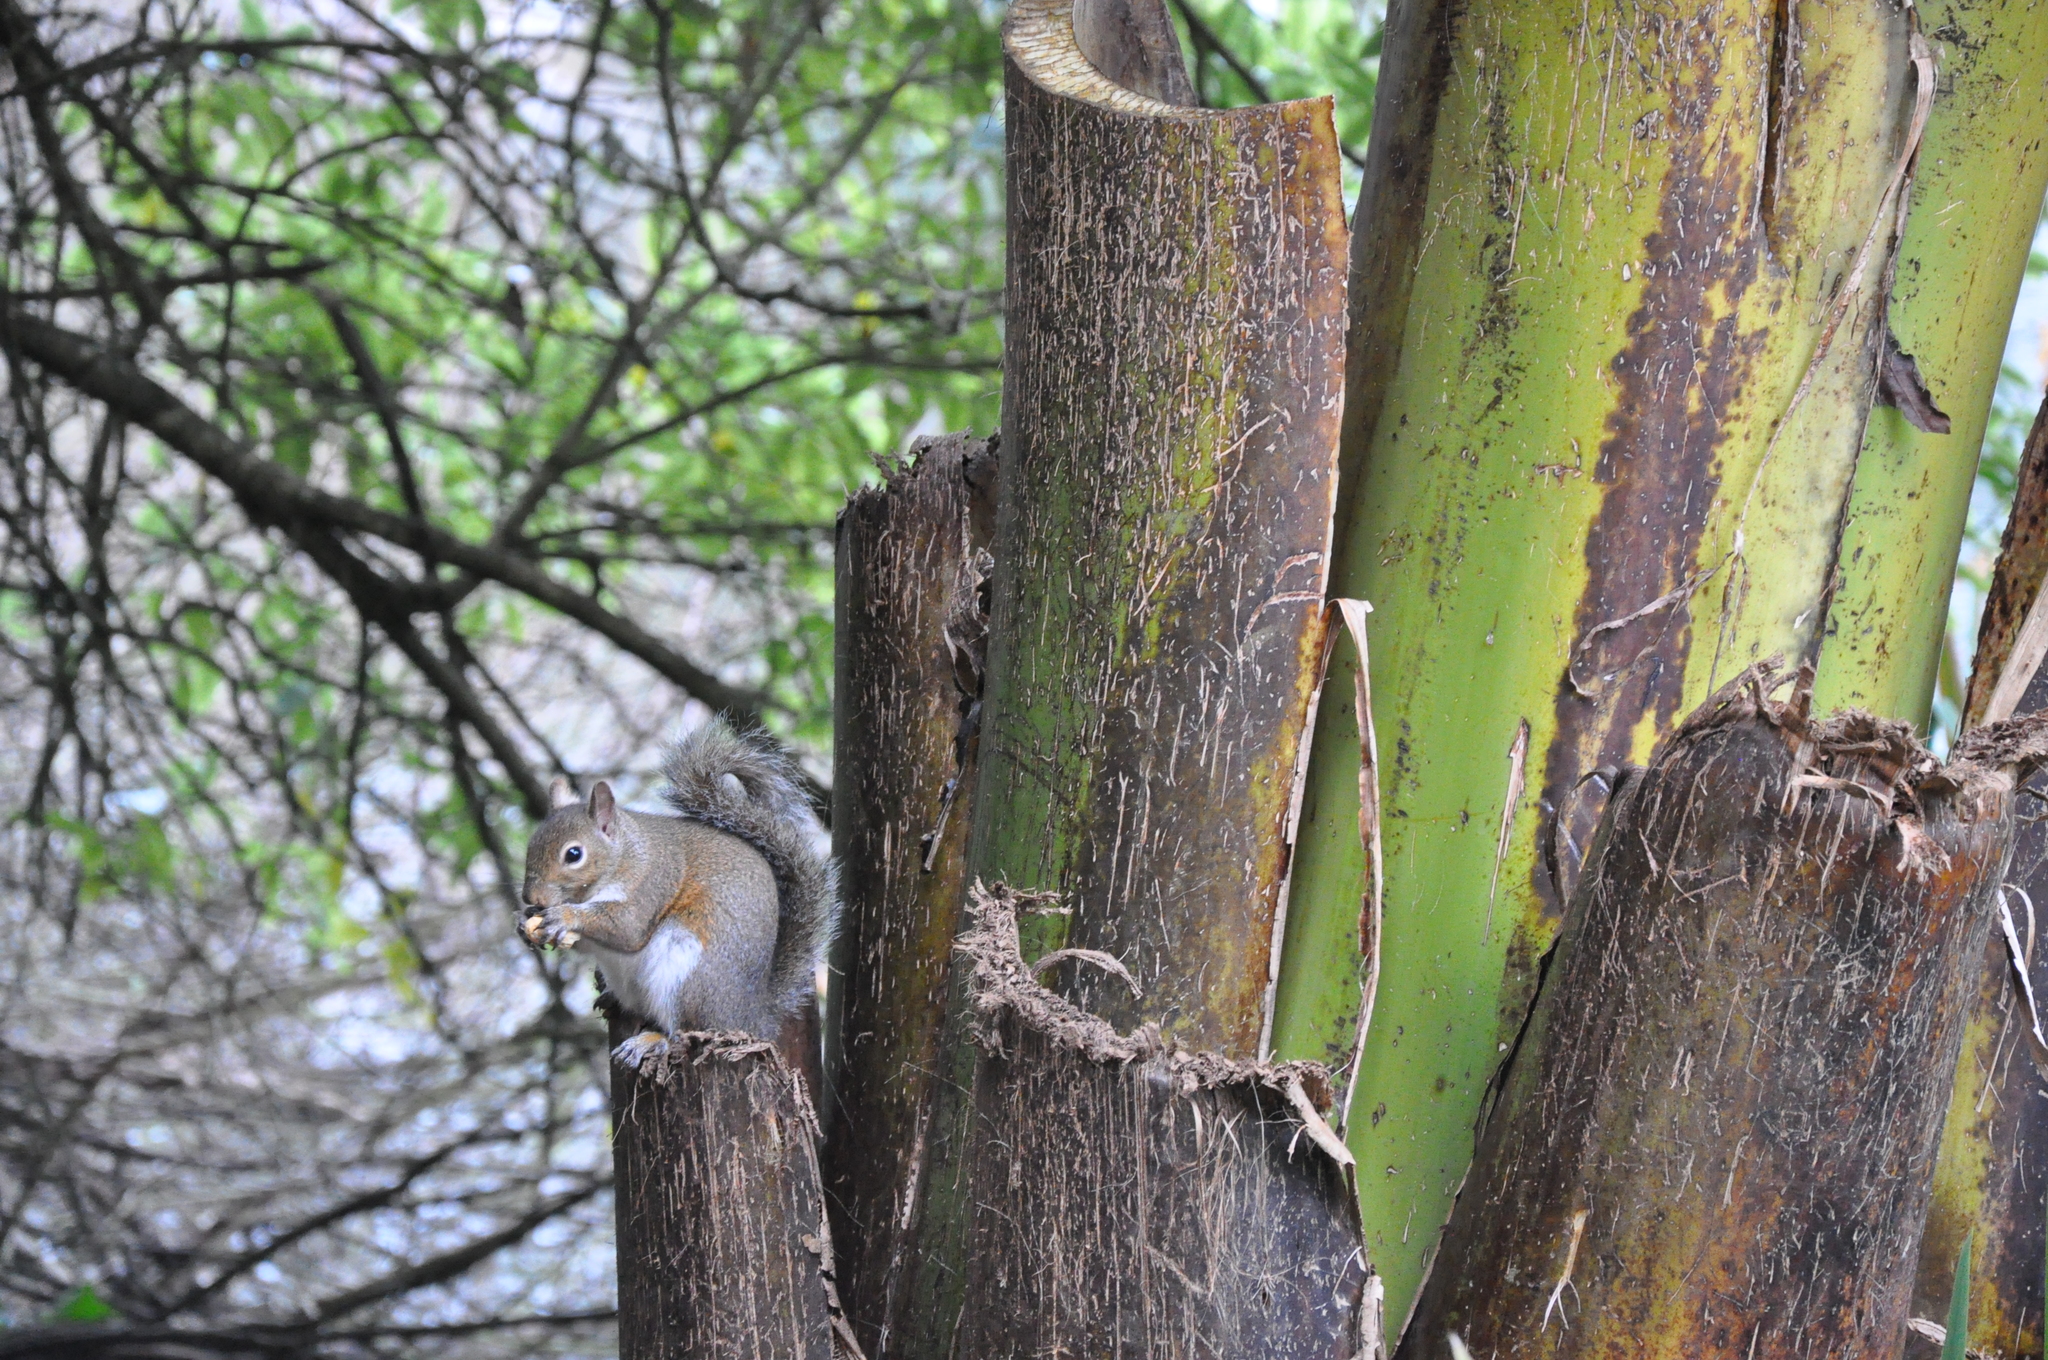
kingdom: Animalia
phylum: Chordata
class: Mammalia
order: Rodentia
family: Sciuridae
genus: Sciurus
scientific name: Sciurus carolinensis
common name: Eastern gray squirrel
